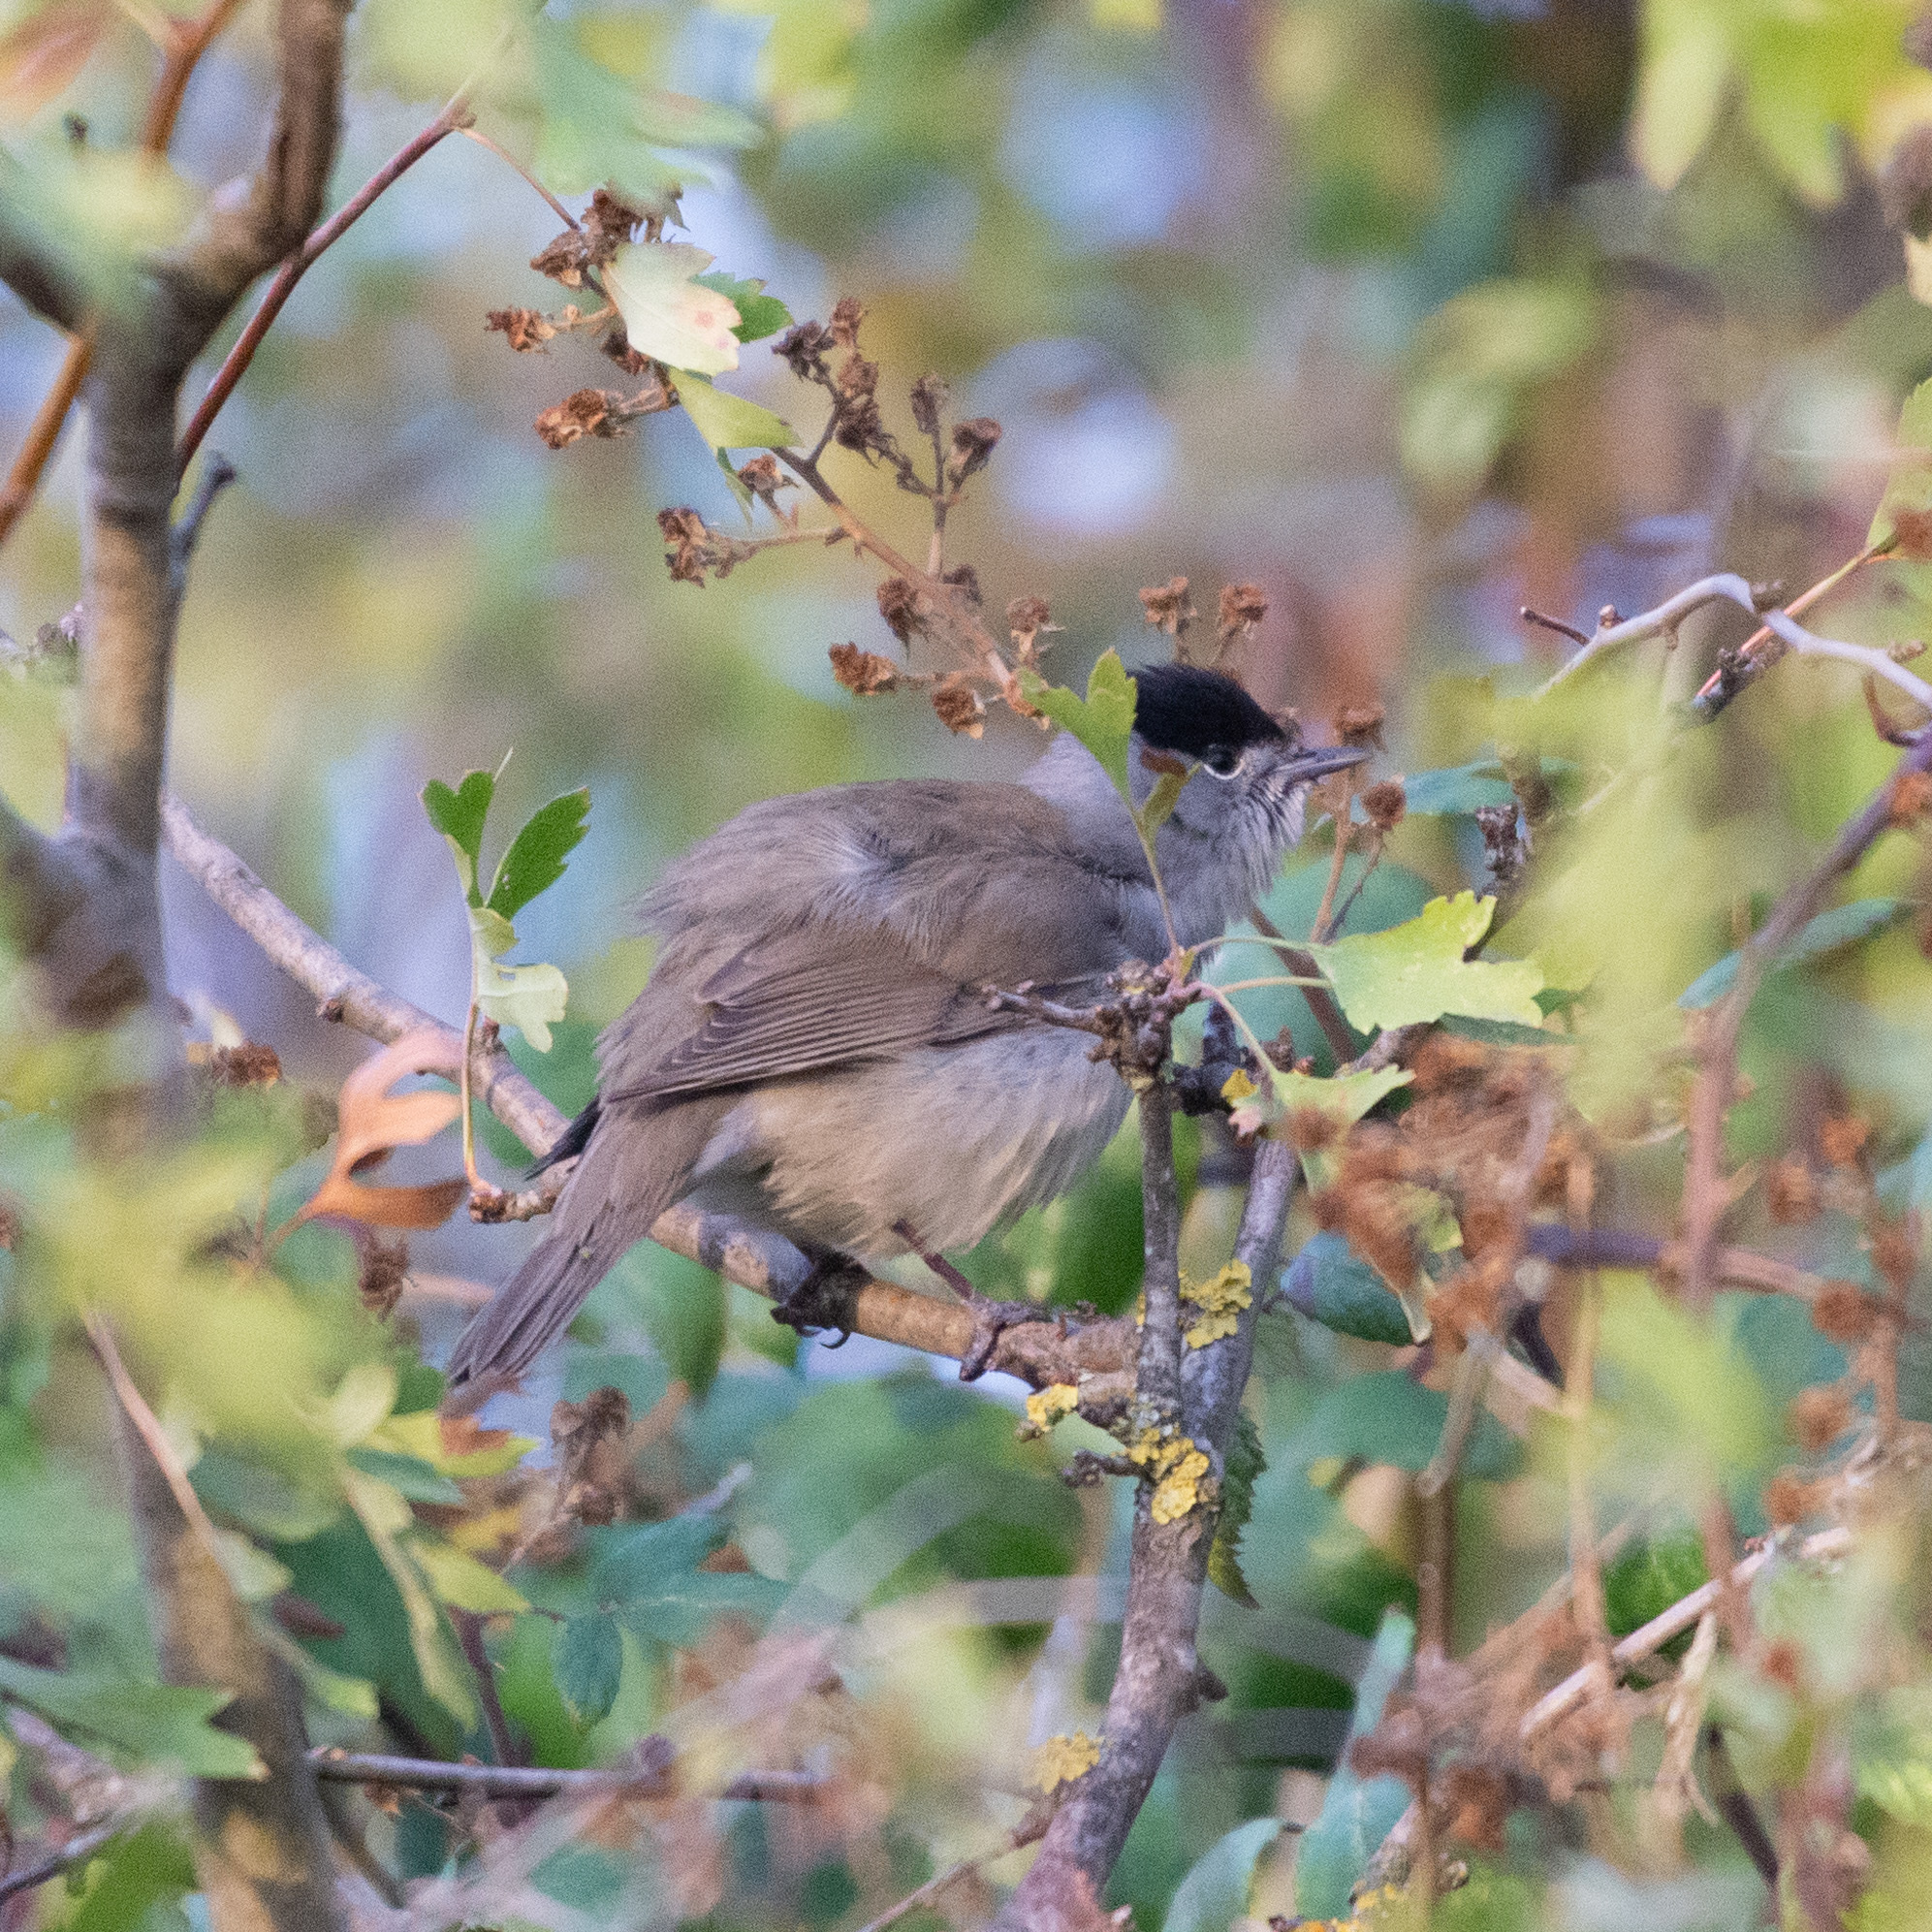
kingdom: Animalia
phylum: Chordata
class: Aves
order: Passeriformes
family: Sylviidae
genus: Sylvia
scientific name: Sylvia atricapilla
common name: Eurasian blackcap
